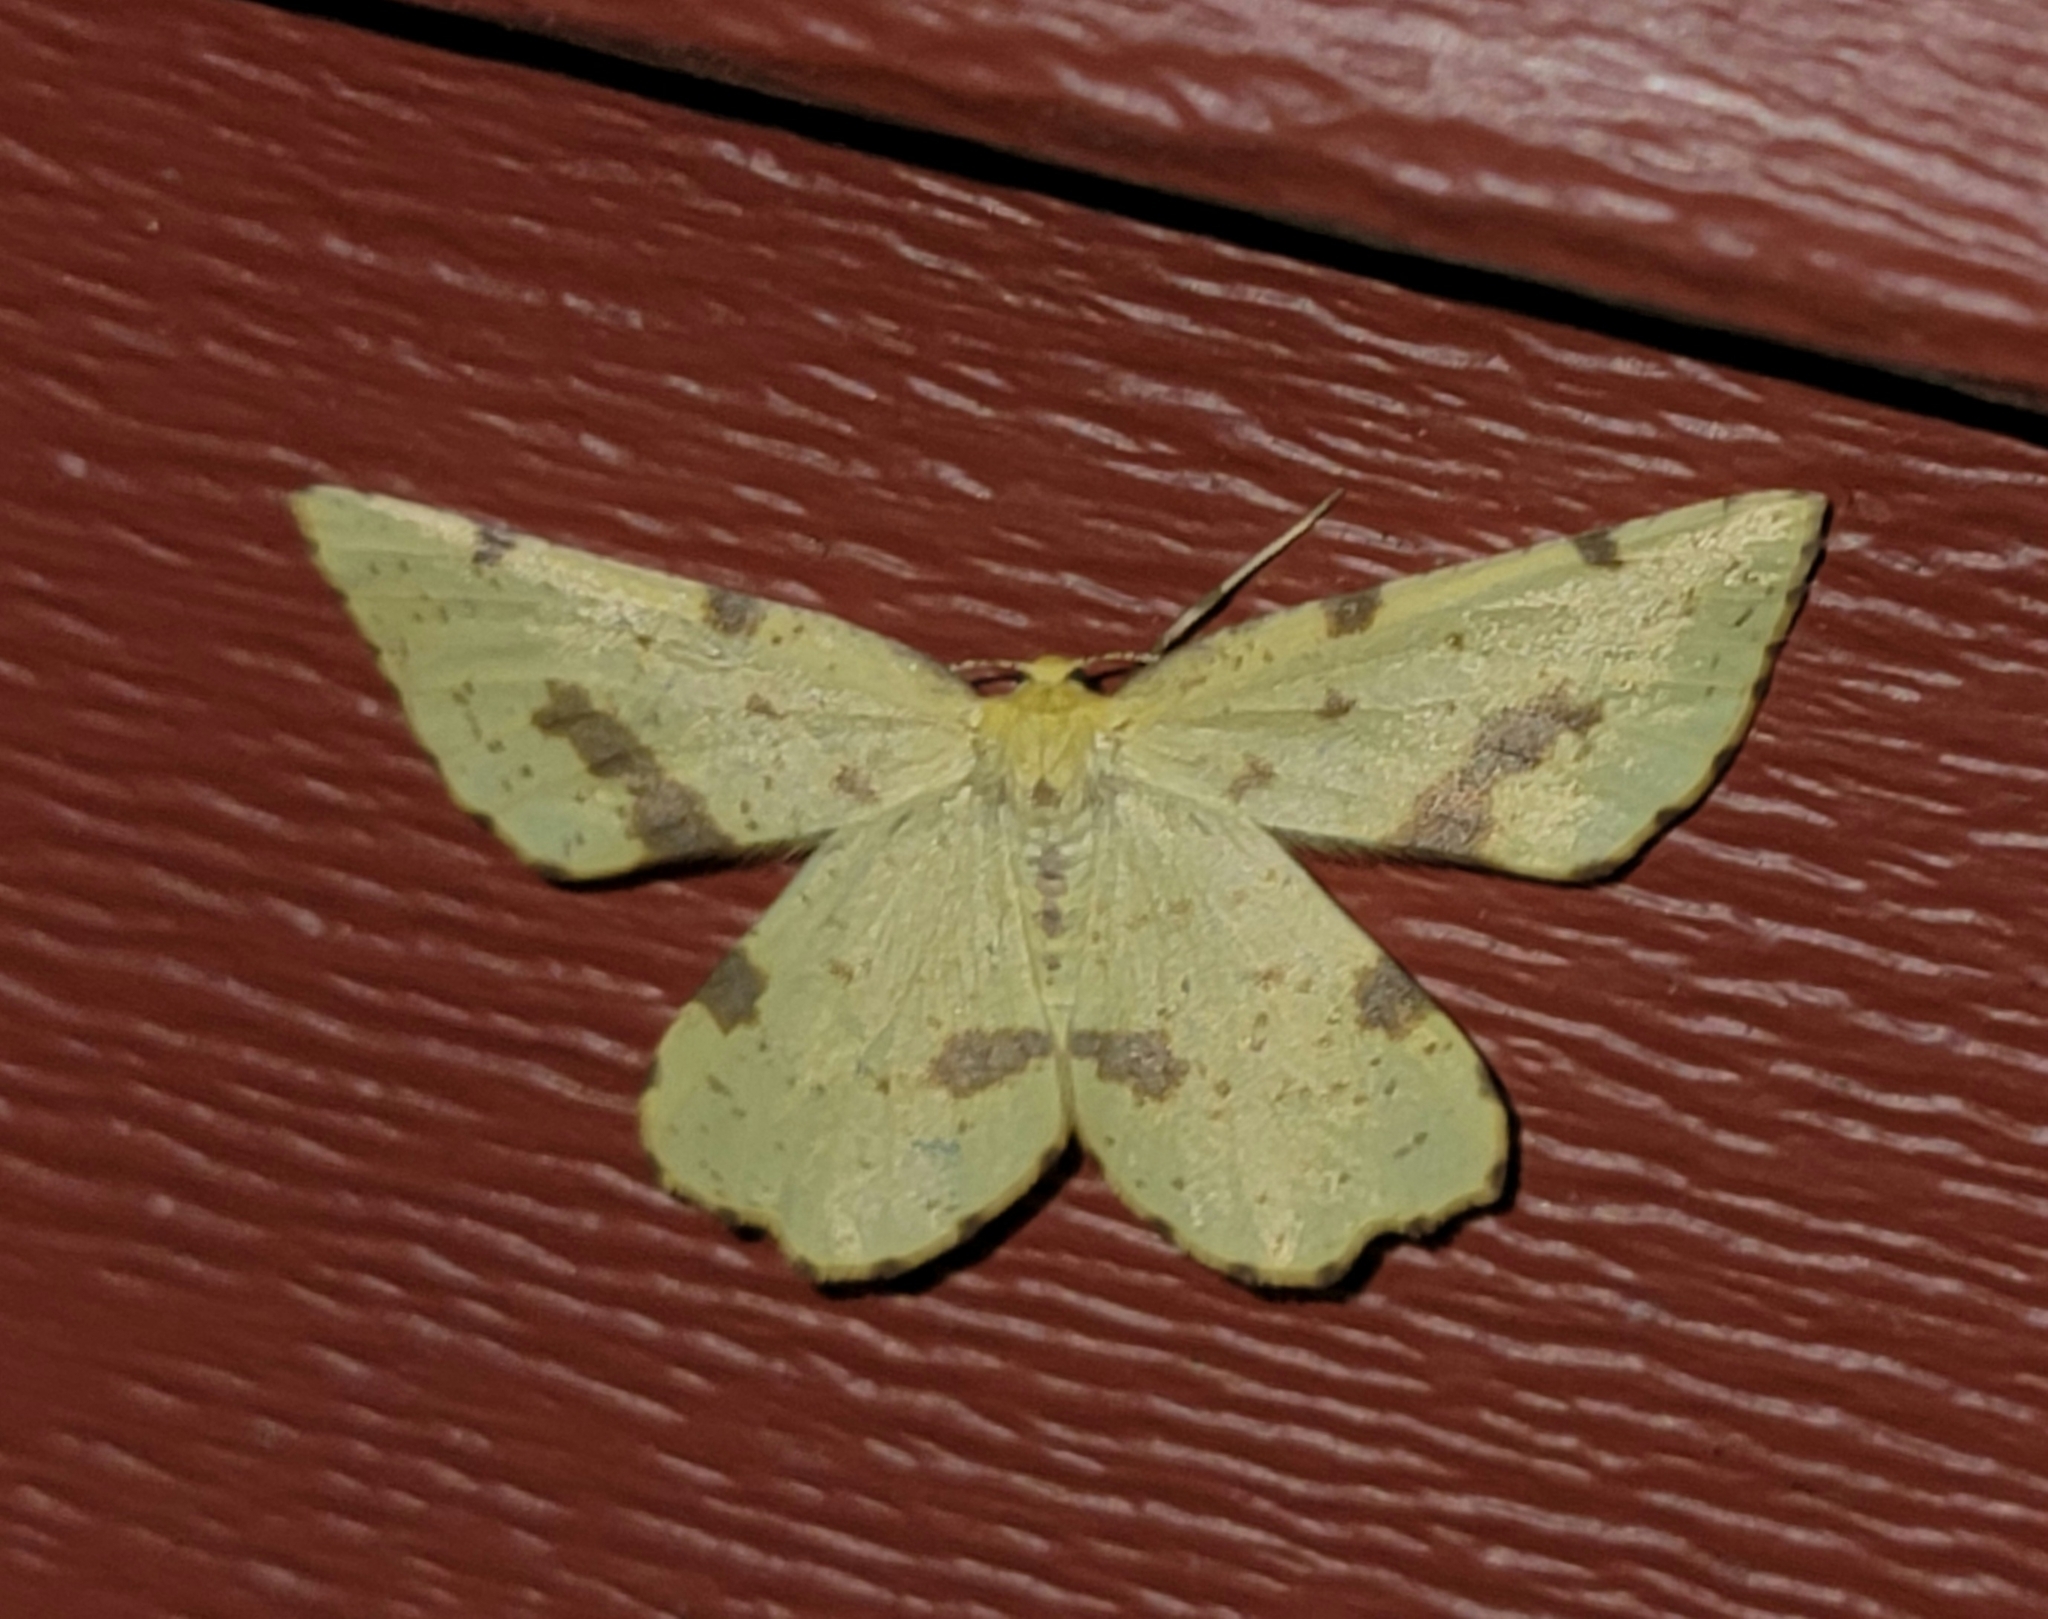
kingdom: Animalia
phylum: Arthropoda
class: Insecta
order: Lepidoptera
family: Geometridae
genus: Xanthotype
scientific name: Xanthotype
